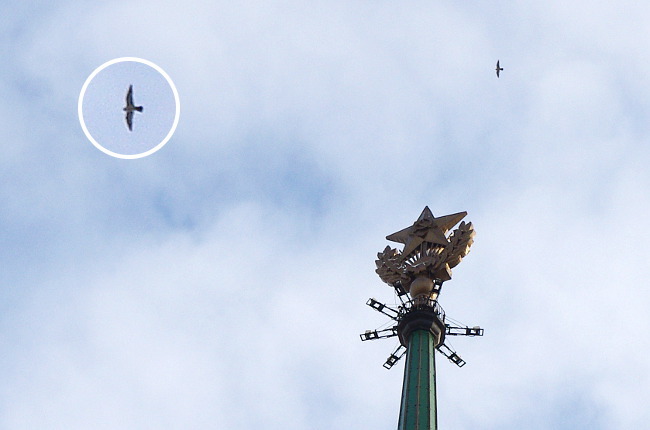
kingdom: Animalia
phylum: Chordata
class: Aves
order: Falconiformes
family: Falconidae
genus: Falco
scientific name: Falco peregrinus
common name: Peregrine falcon
